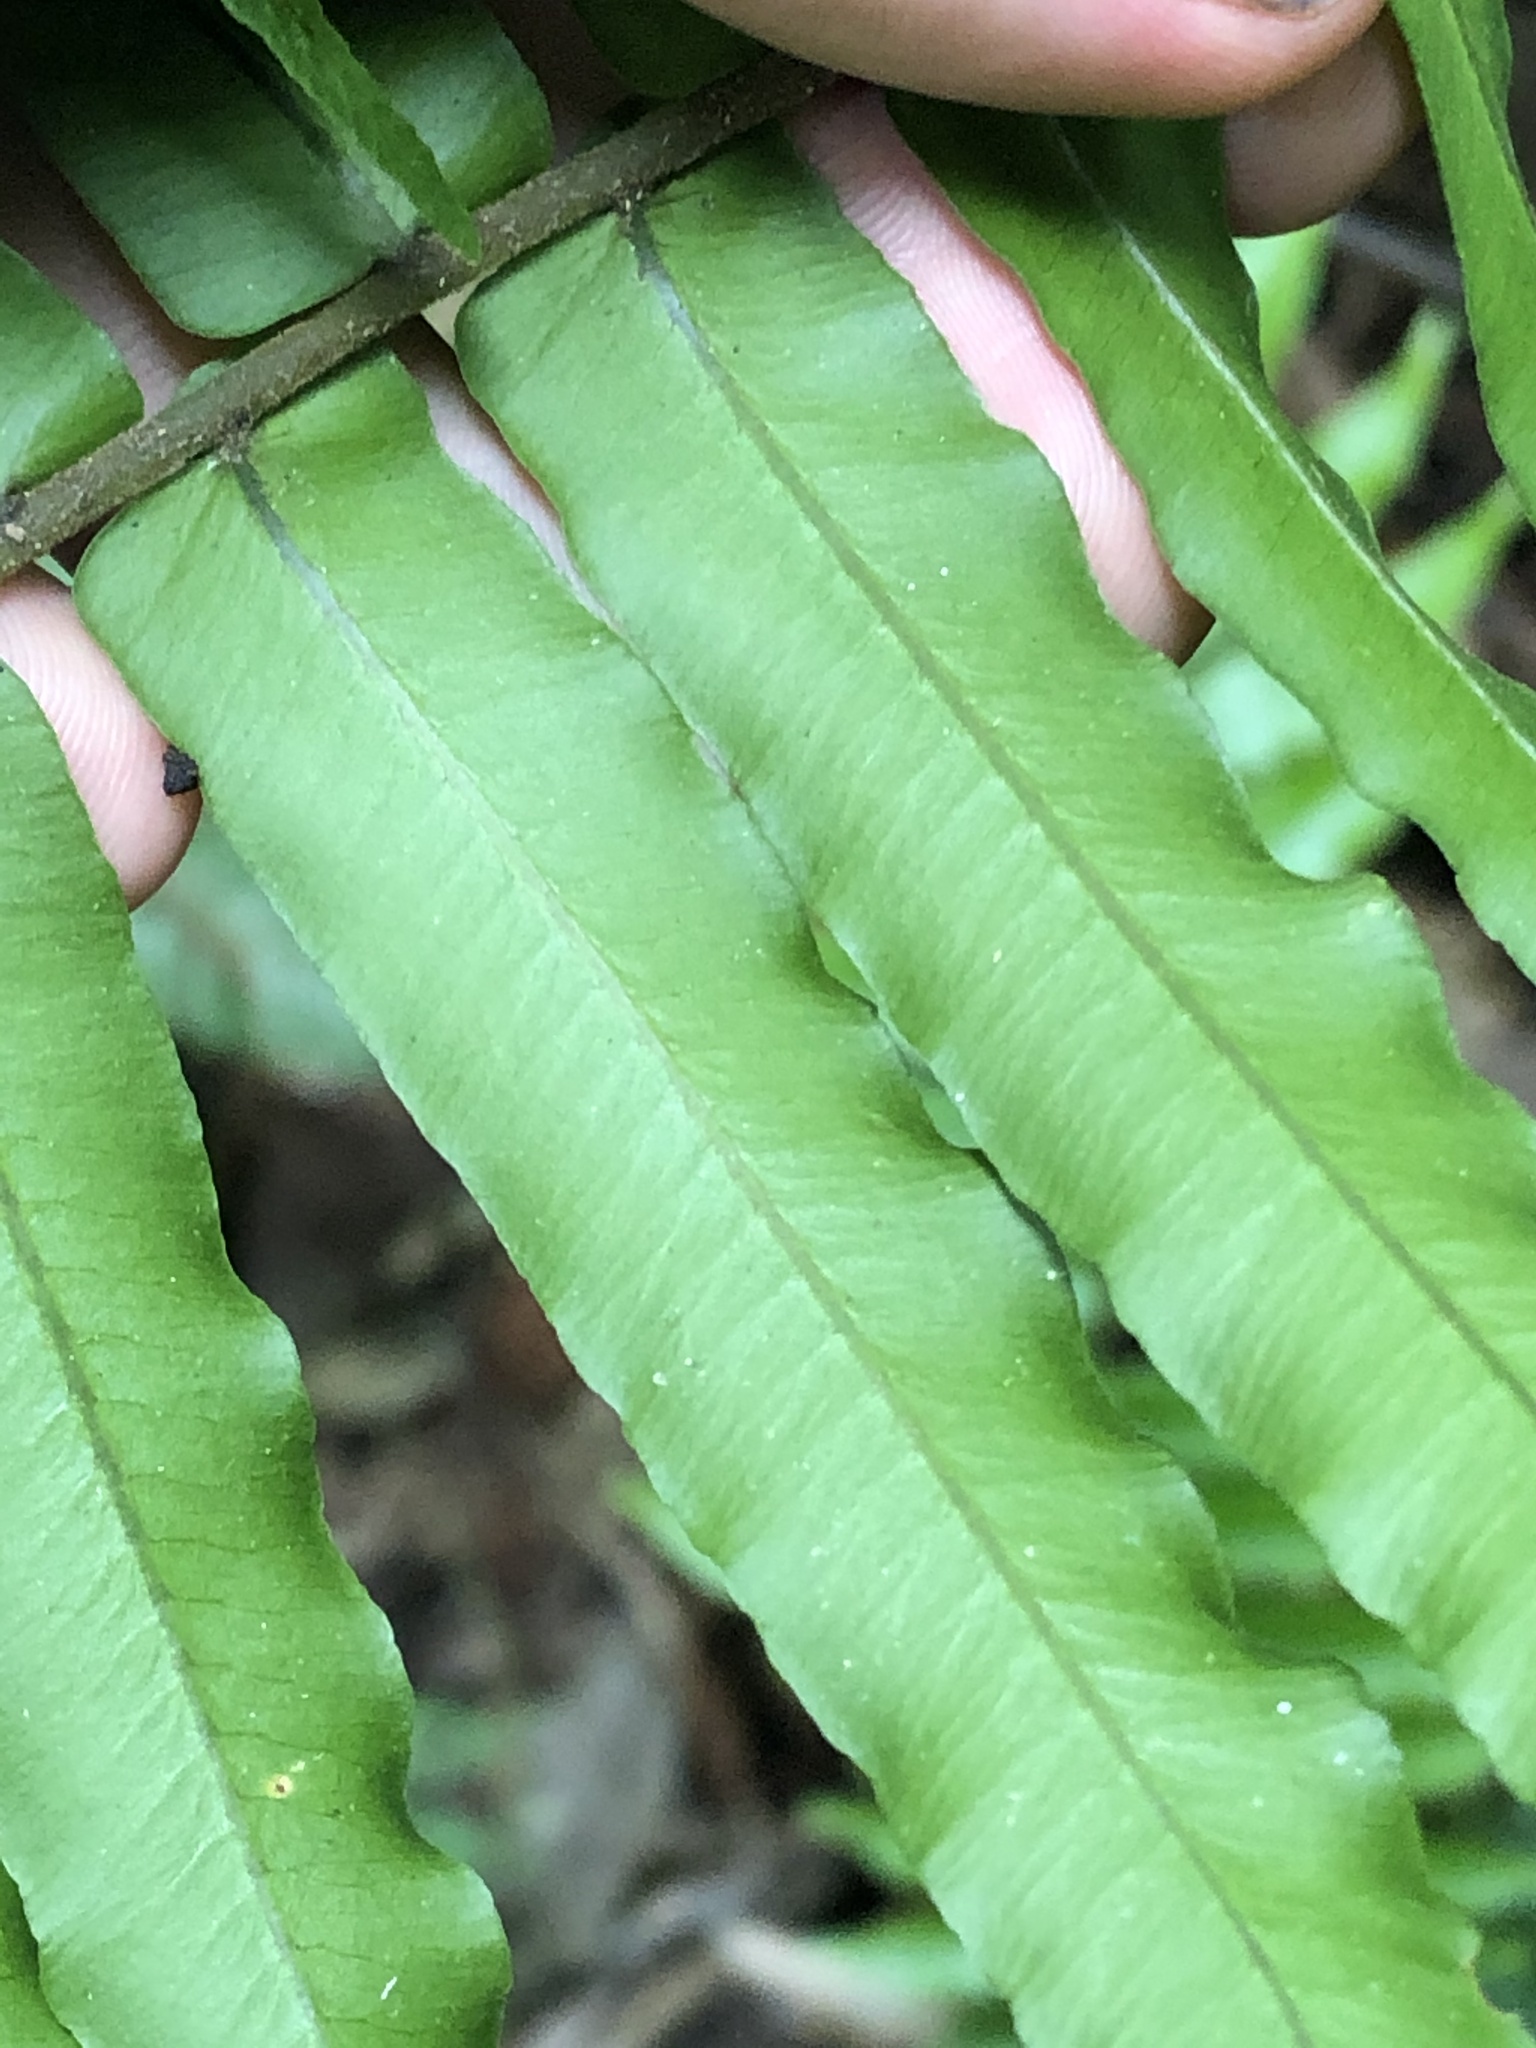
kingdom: Plantae
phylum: Tracheophyta
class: Polypodiopsida
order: Polypodiales
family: Lomariopsidaceae
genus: Cyclopeltis
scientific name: Cyclopeltis semicordata
